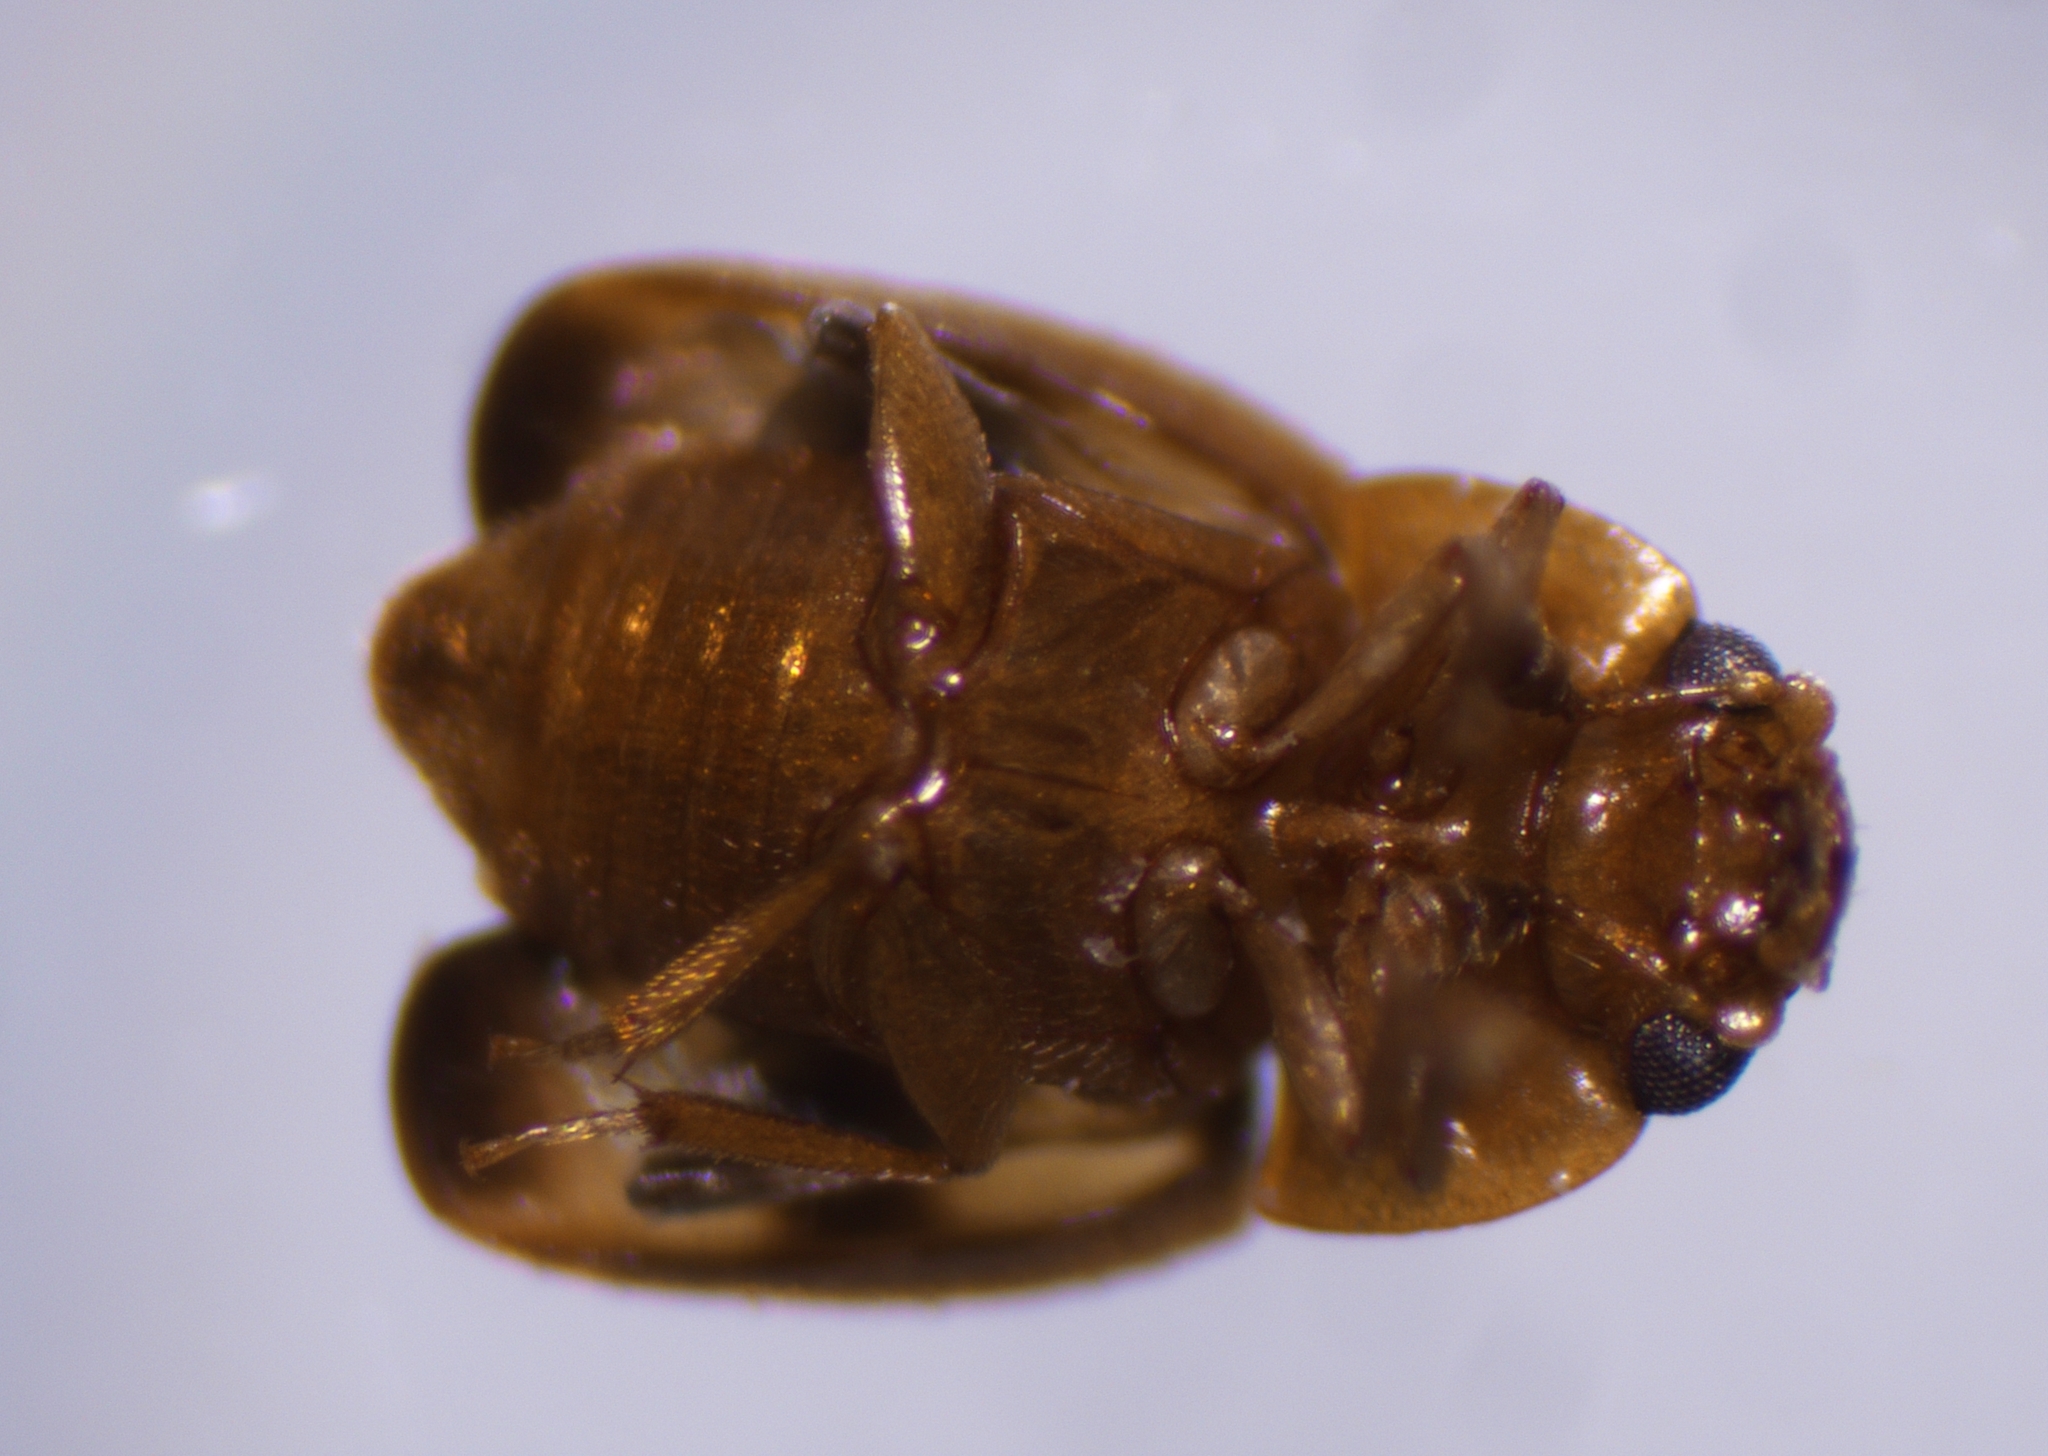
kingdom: Animalia
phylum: Arthropoda
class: Insecta
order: Coleoptera
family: Nitidulidae
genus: Epuraea
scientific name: Epuraea ocularis
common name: Sap beetle
